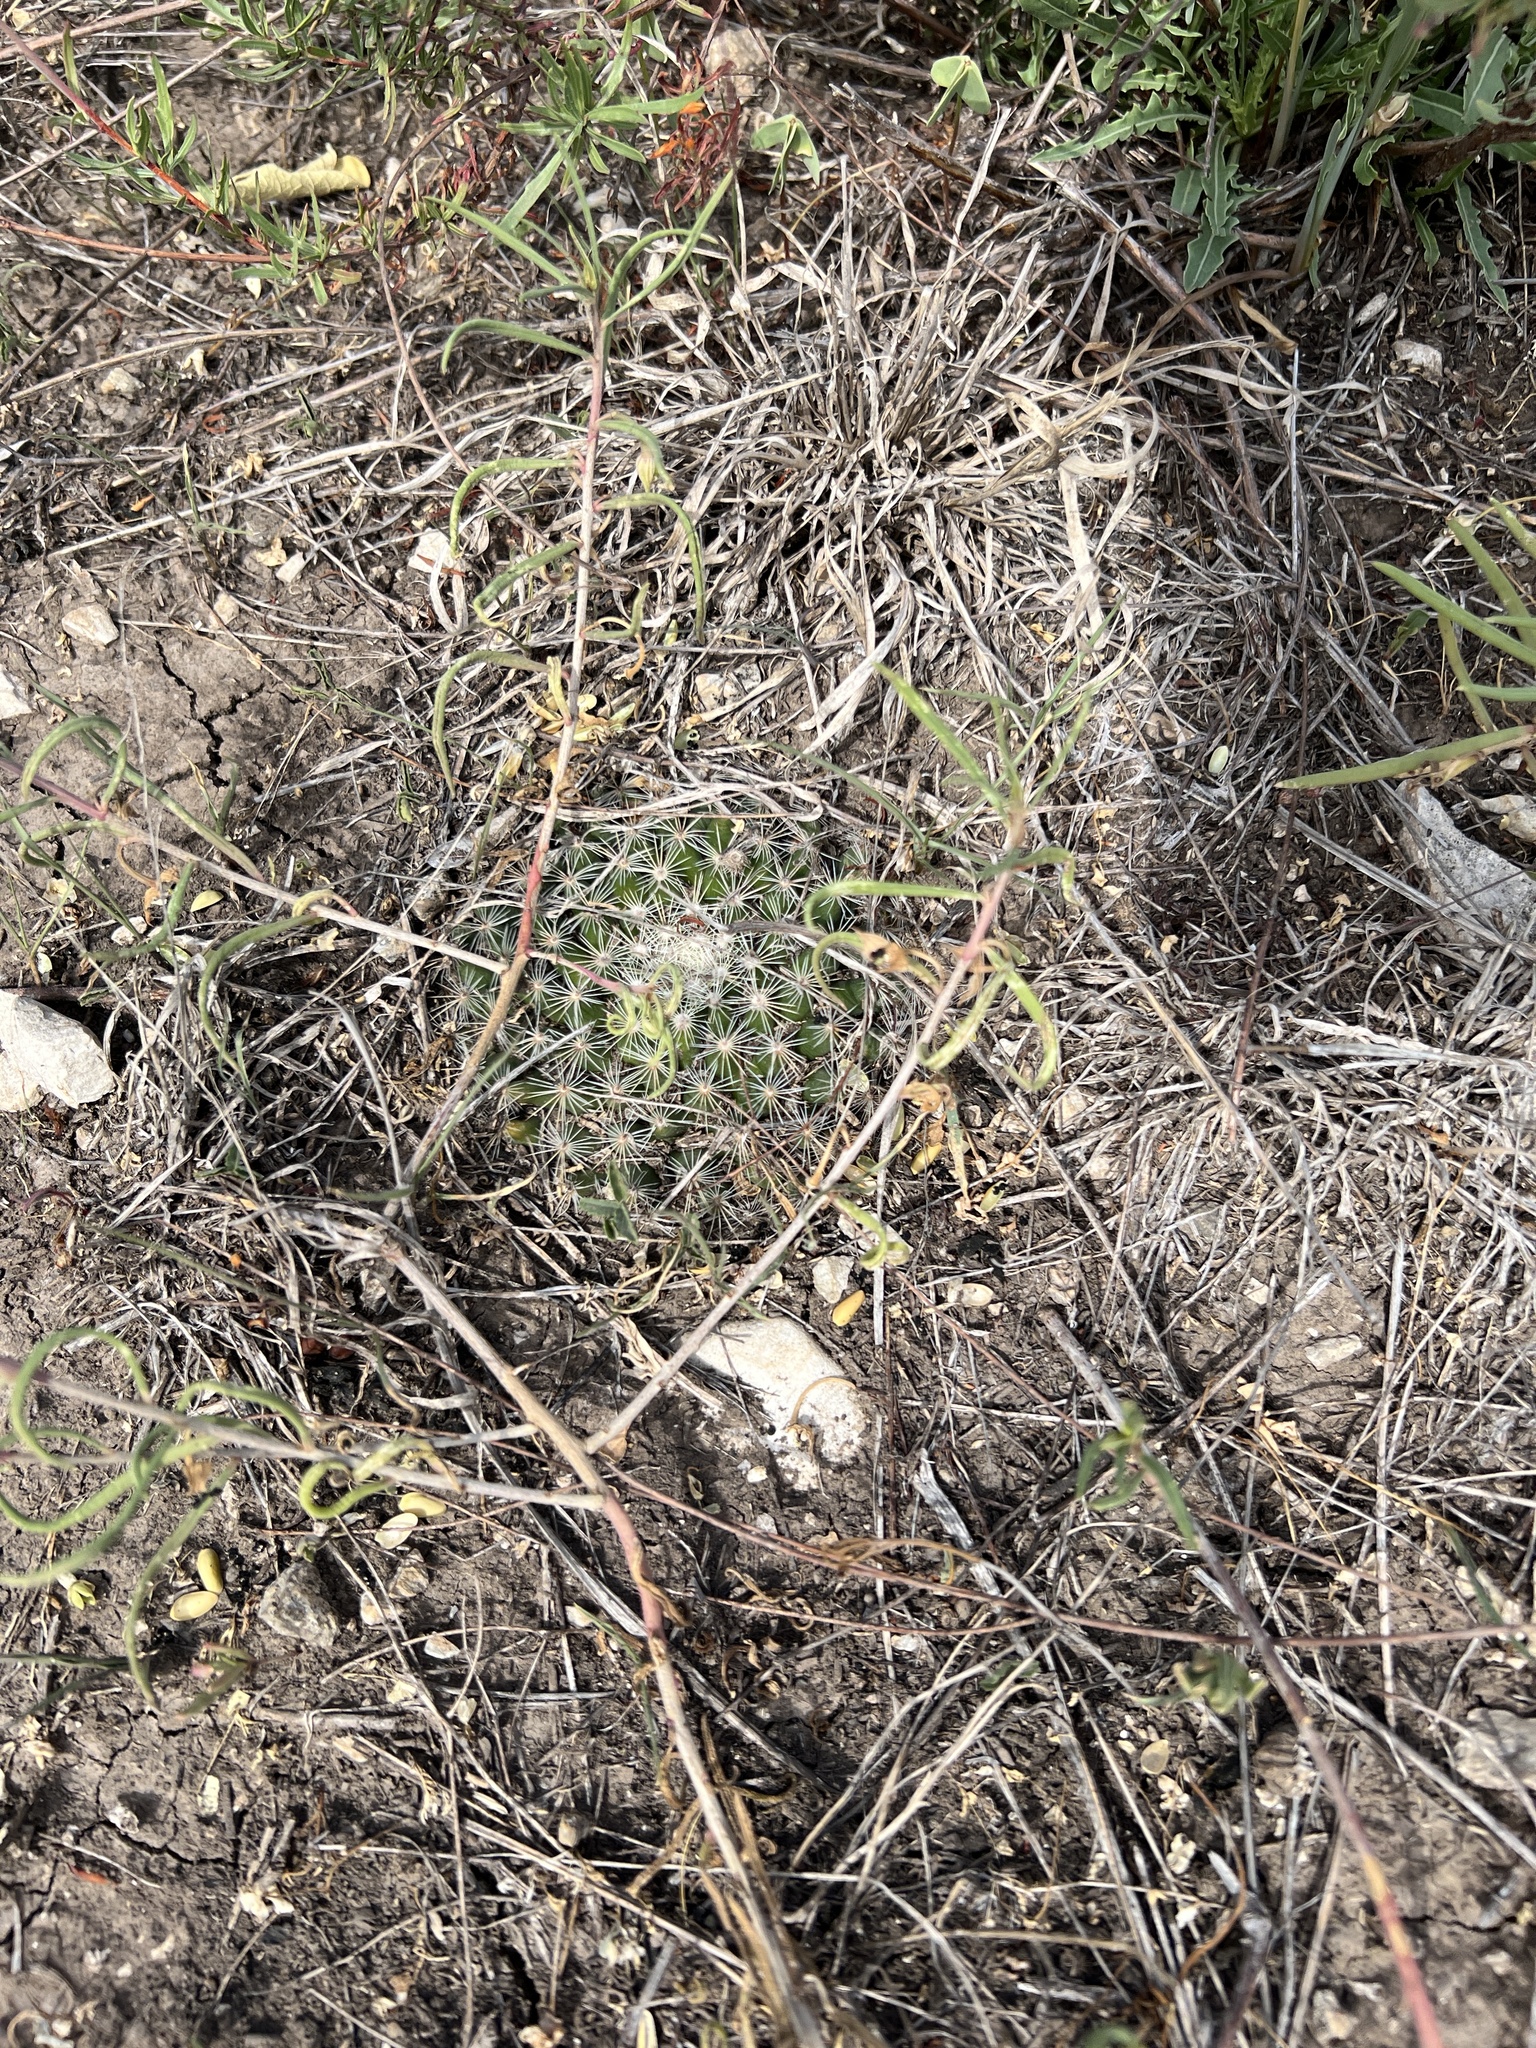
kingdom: Plantae
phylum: Tracheophyta
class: Magnoliopsida
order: Caryophyllales
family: Cactaceae
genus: Mammillaria
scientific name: Mammillaria heyderi
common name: Little nipple cactus
